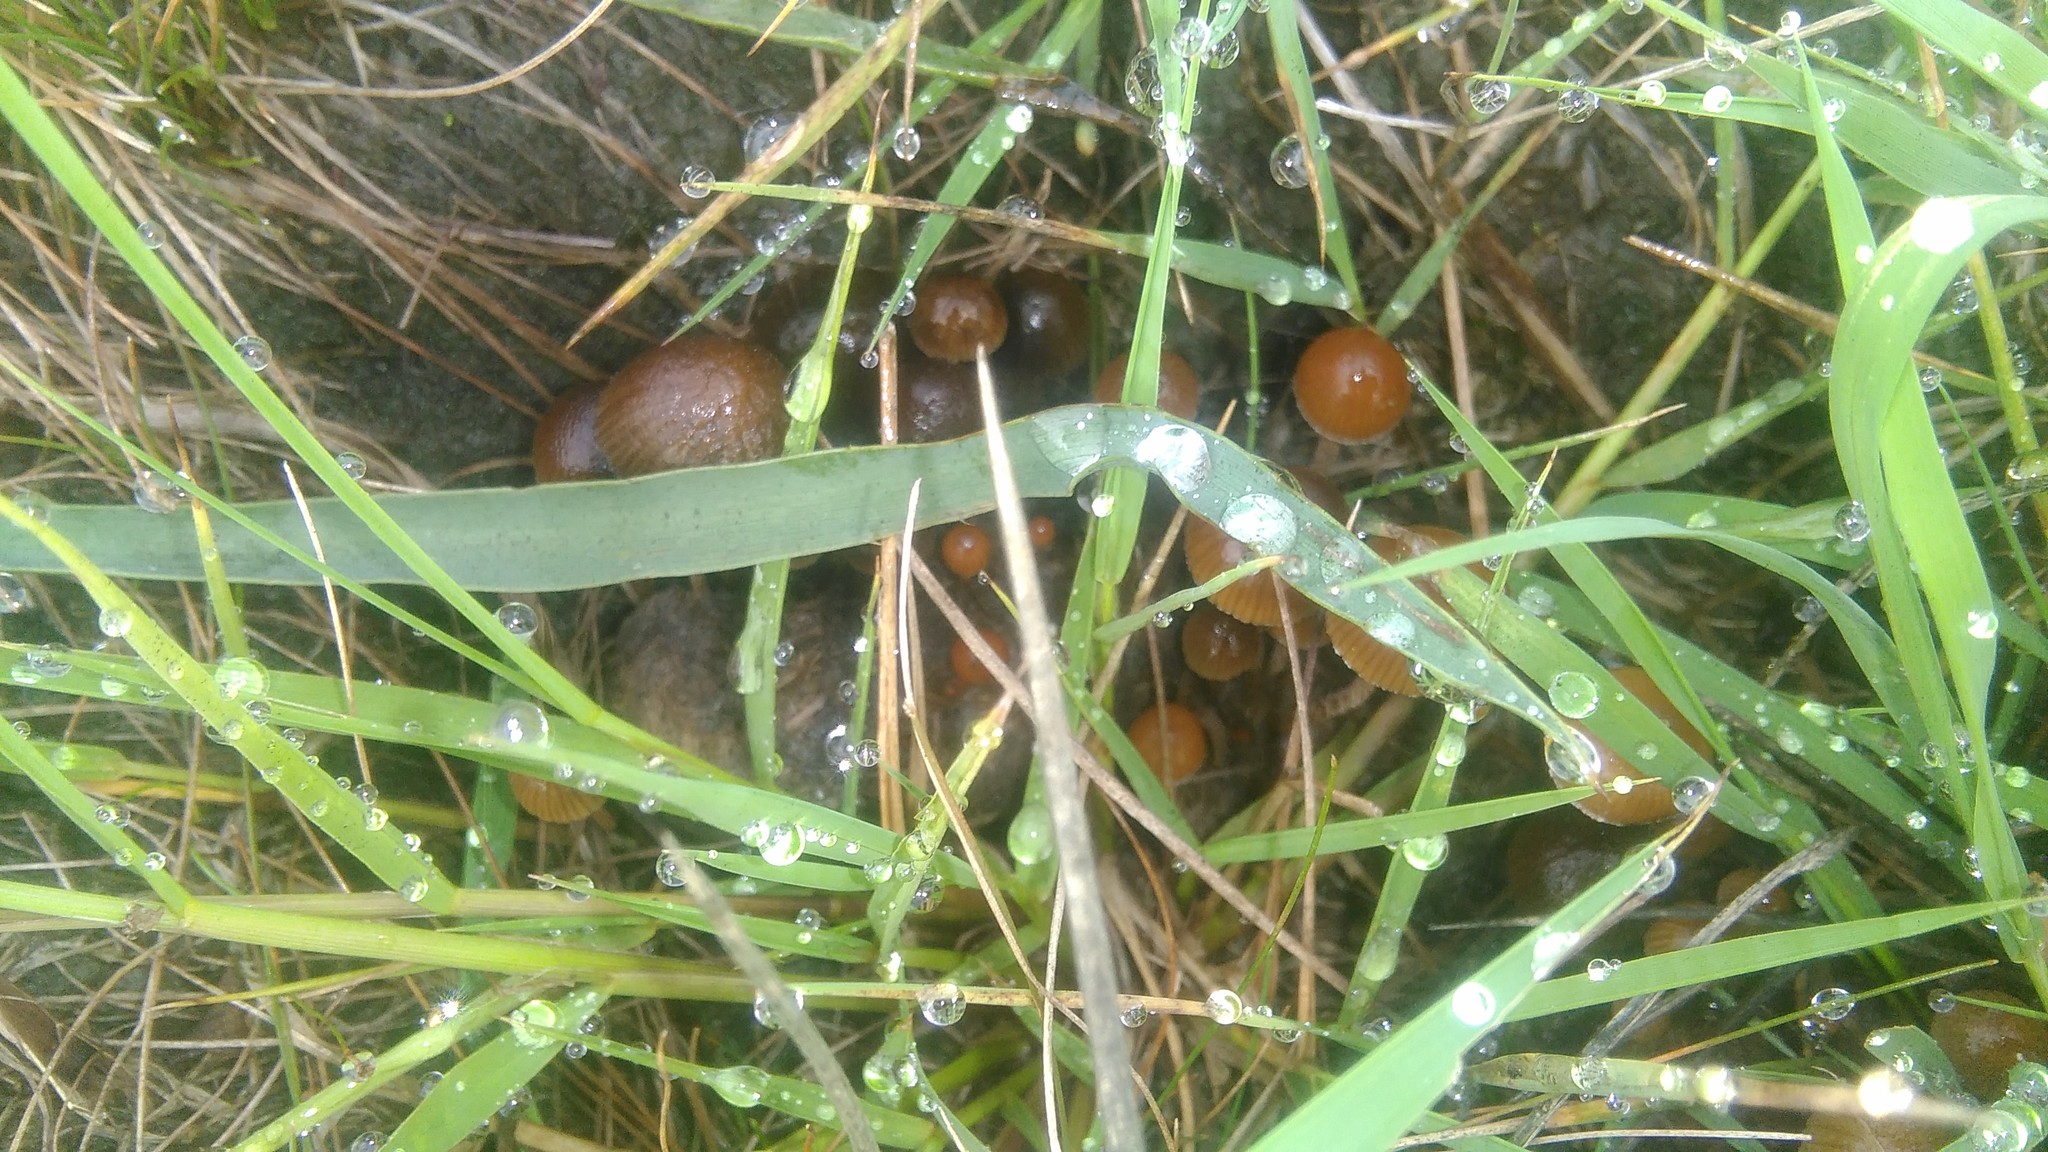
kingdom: Fungi
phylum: Basidiomycota
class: Agaricomycetes
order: Agaricales
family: Strophariaceae
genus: Deconica
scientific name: Deconica coprophila
